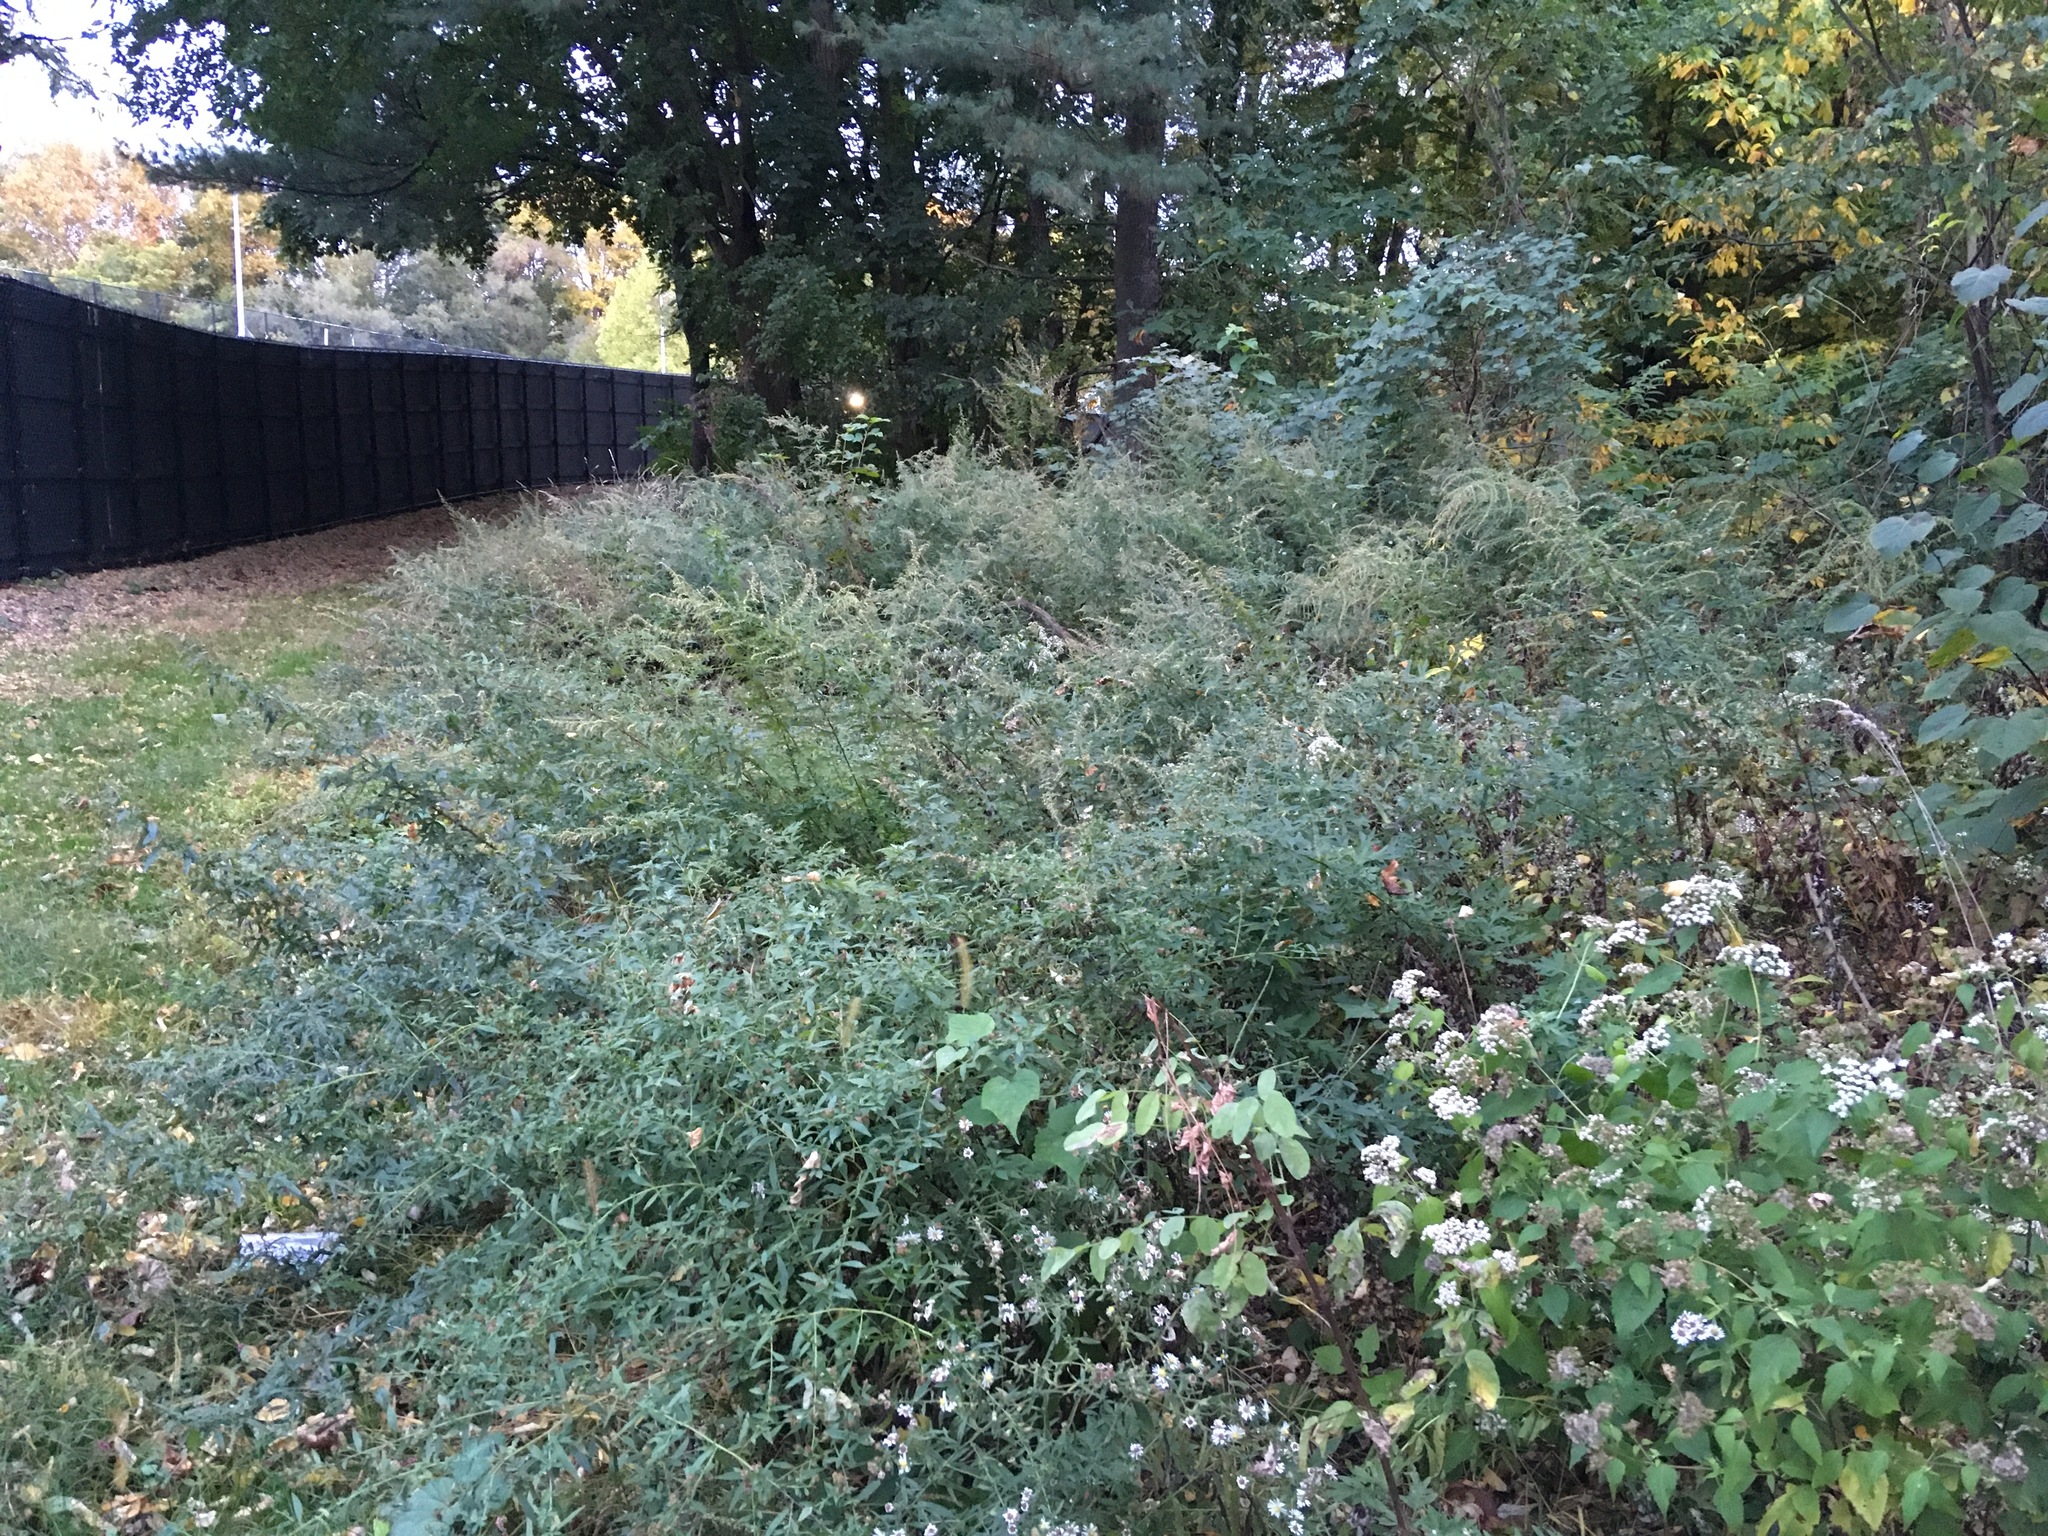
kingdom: Plantae
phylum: Tracheophyta
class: Magnoliopsida
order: Asterales
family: Asteraceae
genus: Artemisia
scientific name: Artemisia vulgaris
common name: Mugwort
